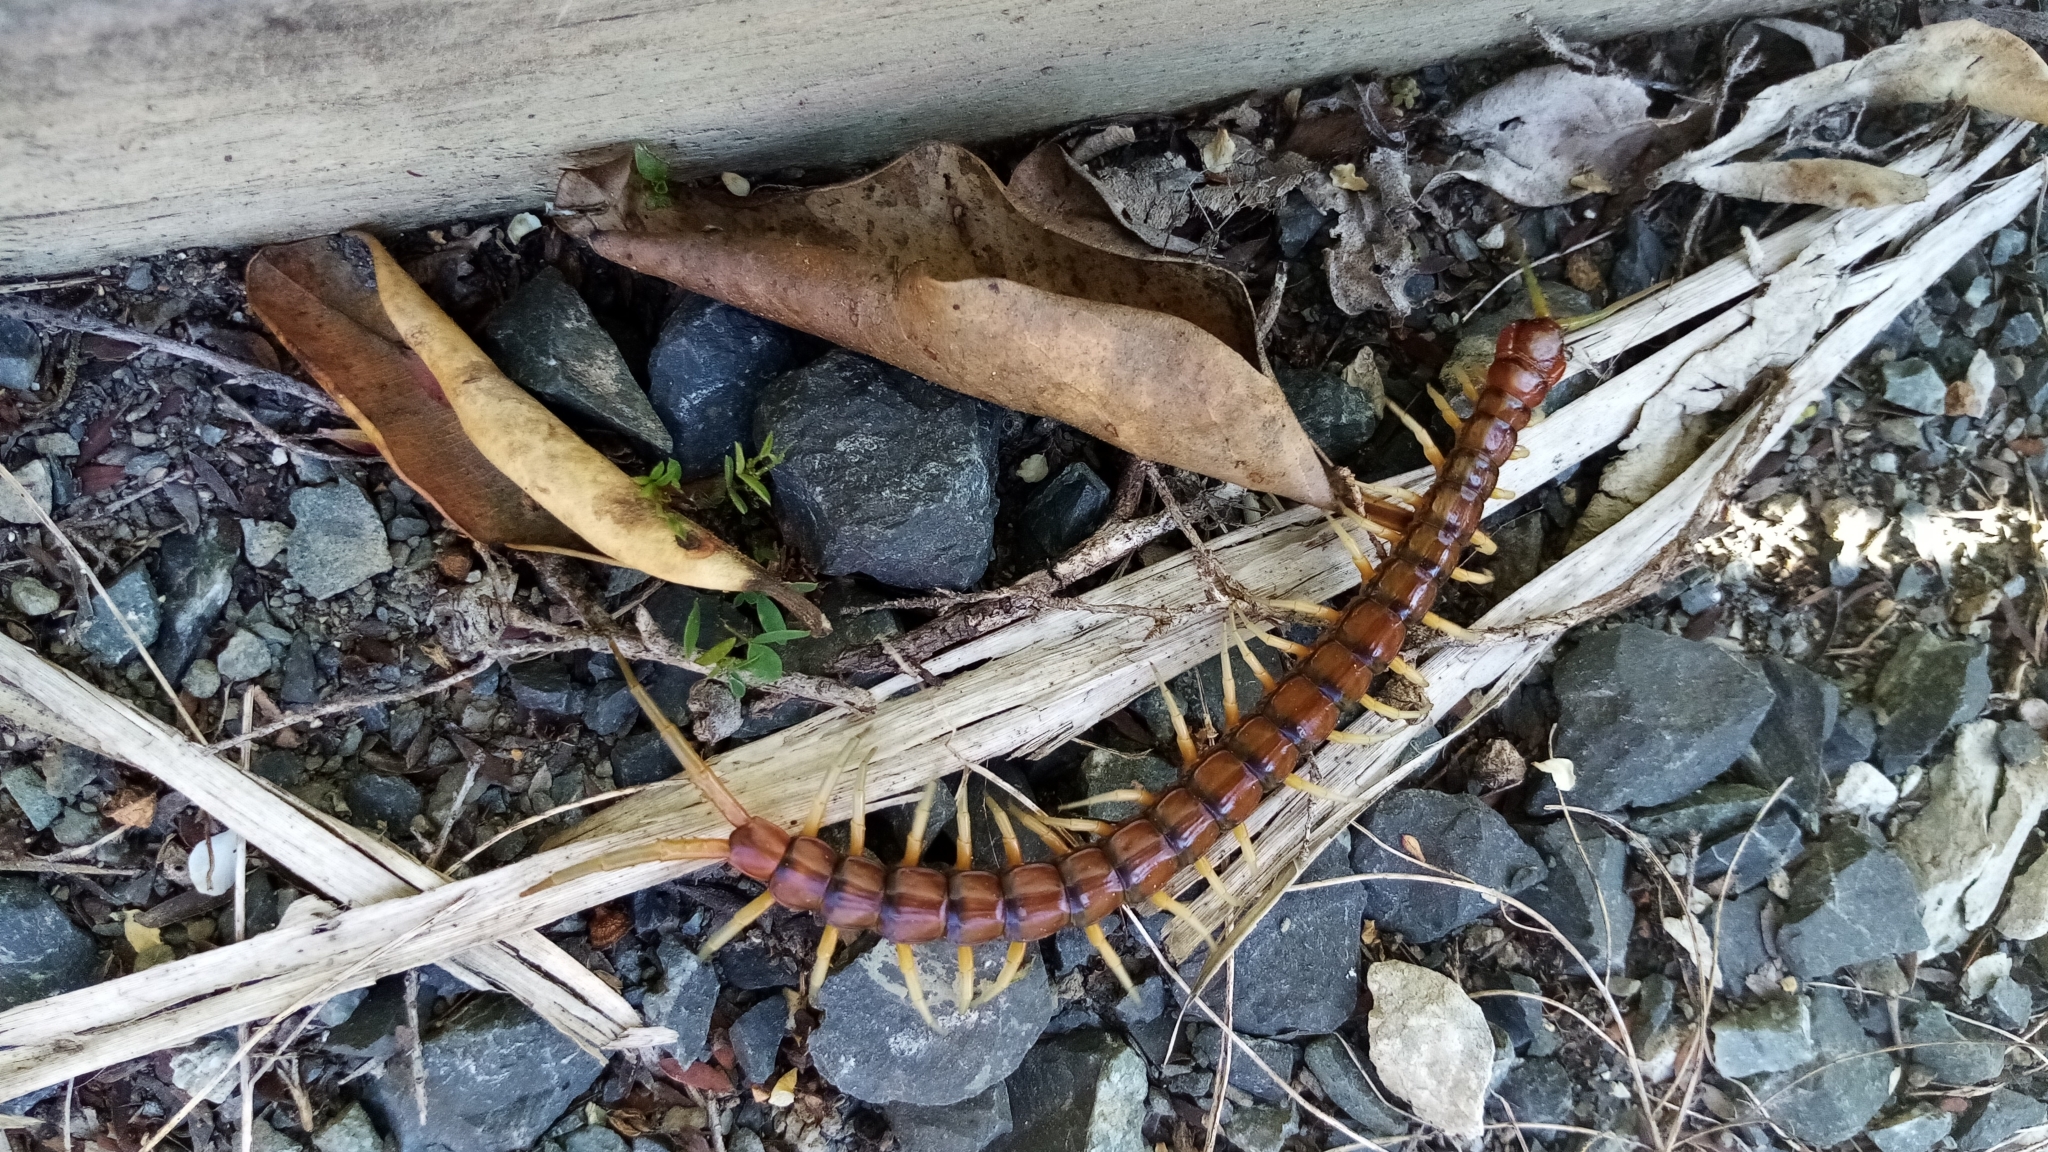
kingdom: Animalia
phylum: Arthropoda
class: Chilopoda
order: Scolopendromorpha
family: Scolopendridae
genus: Cormocephalus
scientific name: Cormocephalus rubriceps
